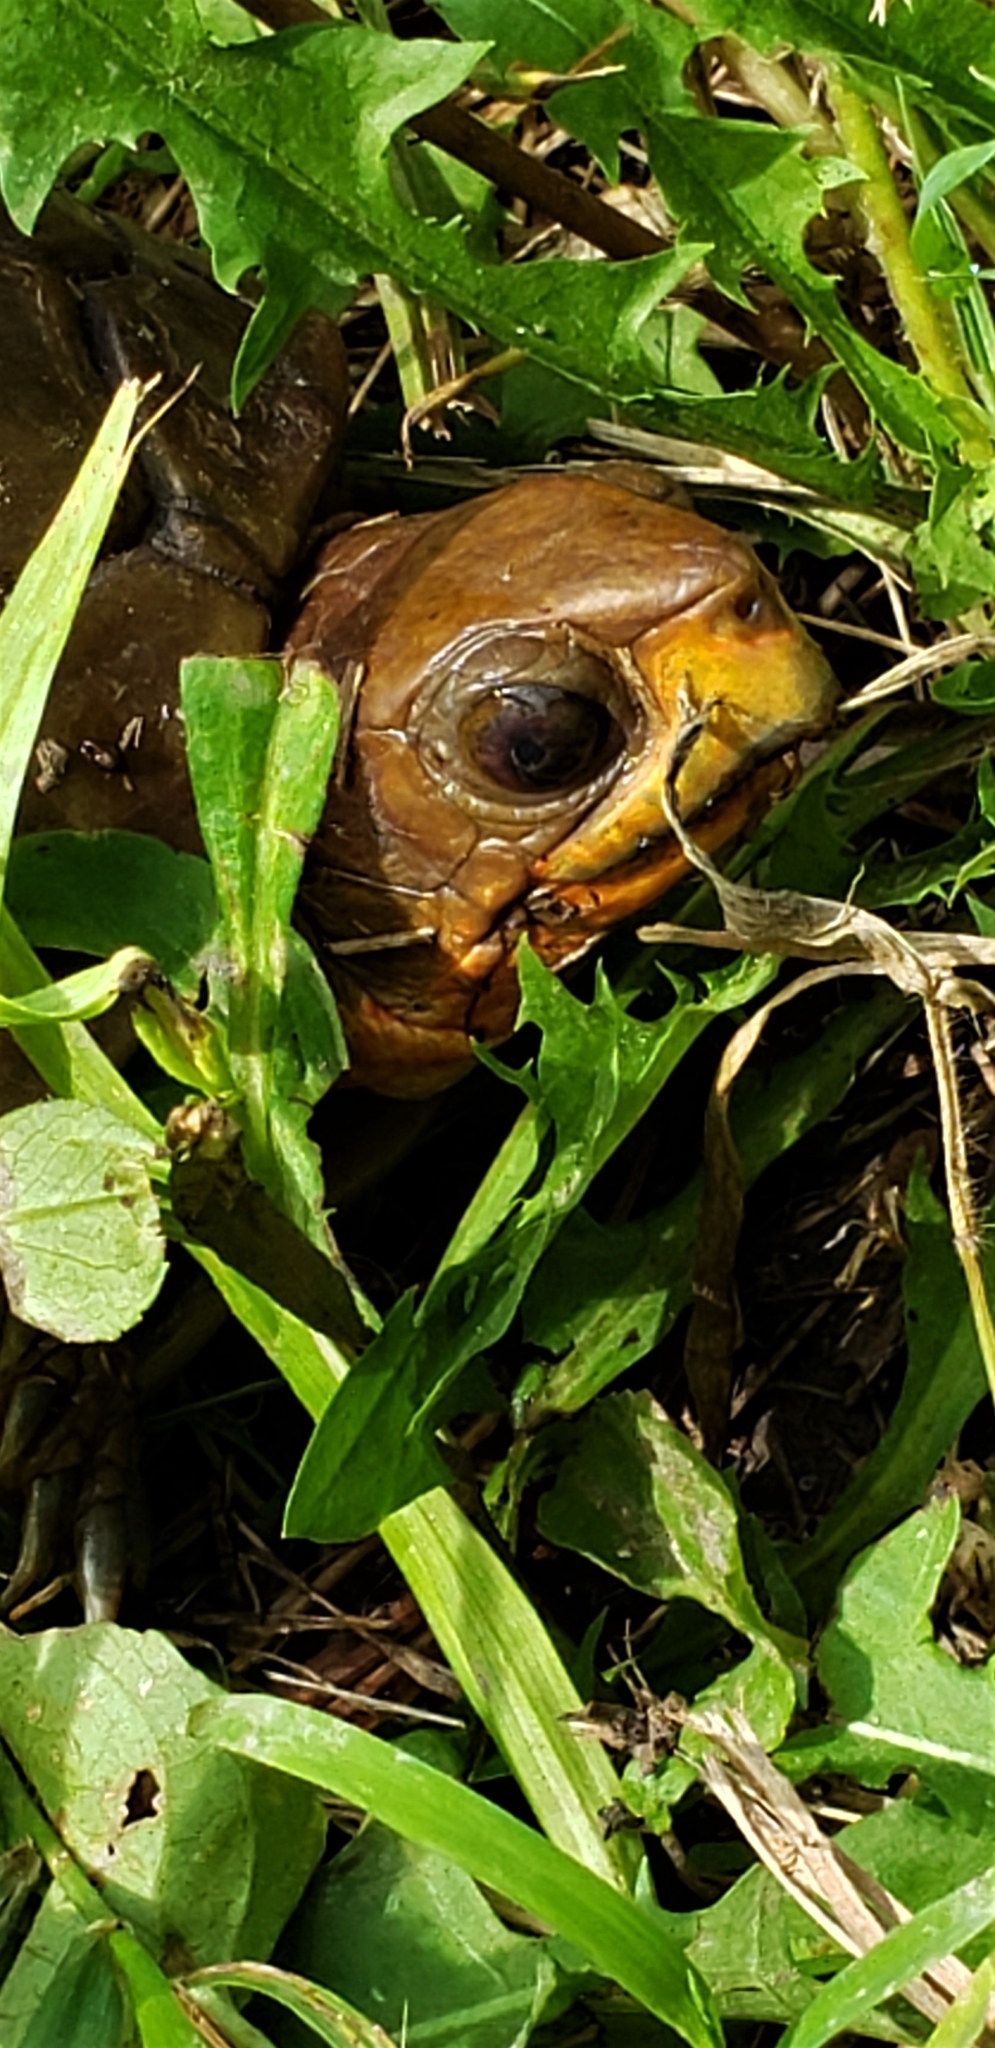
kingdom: Animalia
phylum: Chordata
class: Testudines
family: Emydidae
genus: Terrapene
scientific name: Terrapene carolina
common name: Common box turtle
